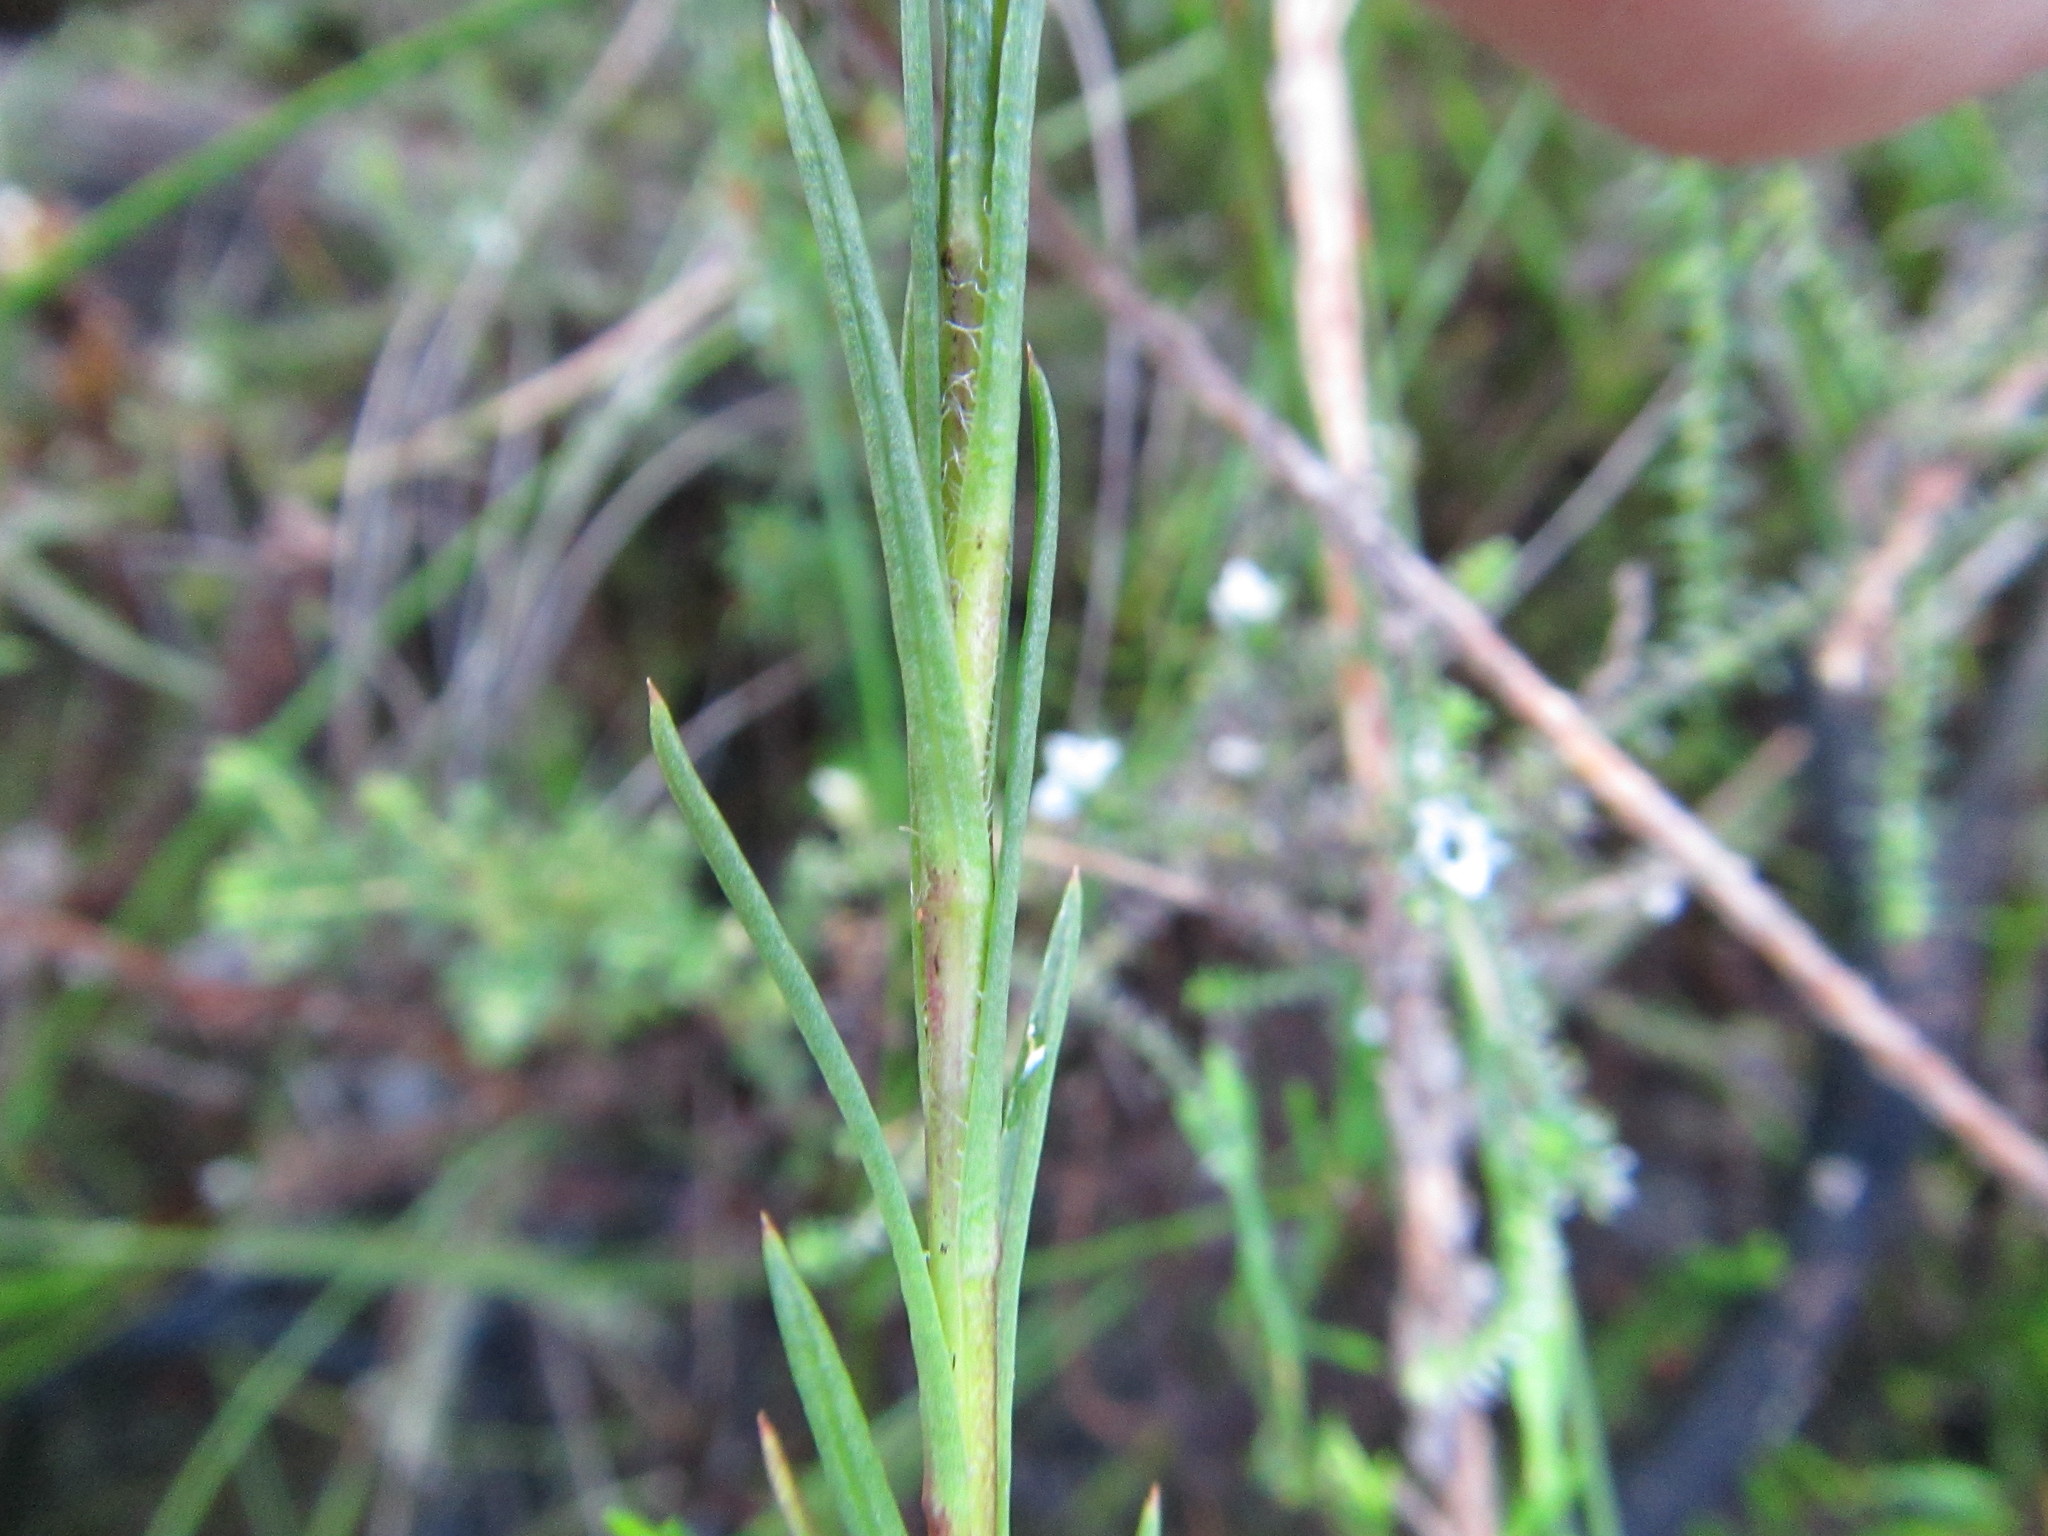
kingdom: Plantae
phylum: Tracheophyta
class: Magnoliopsida
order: Asterales
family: Asteraceae
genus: Zyrphelis
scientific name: Zyrphelis taxifolia
